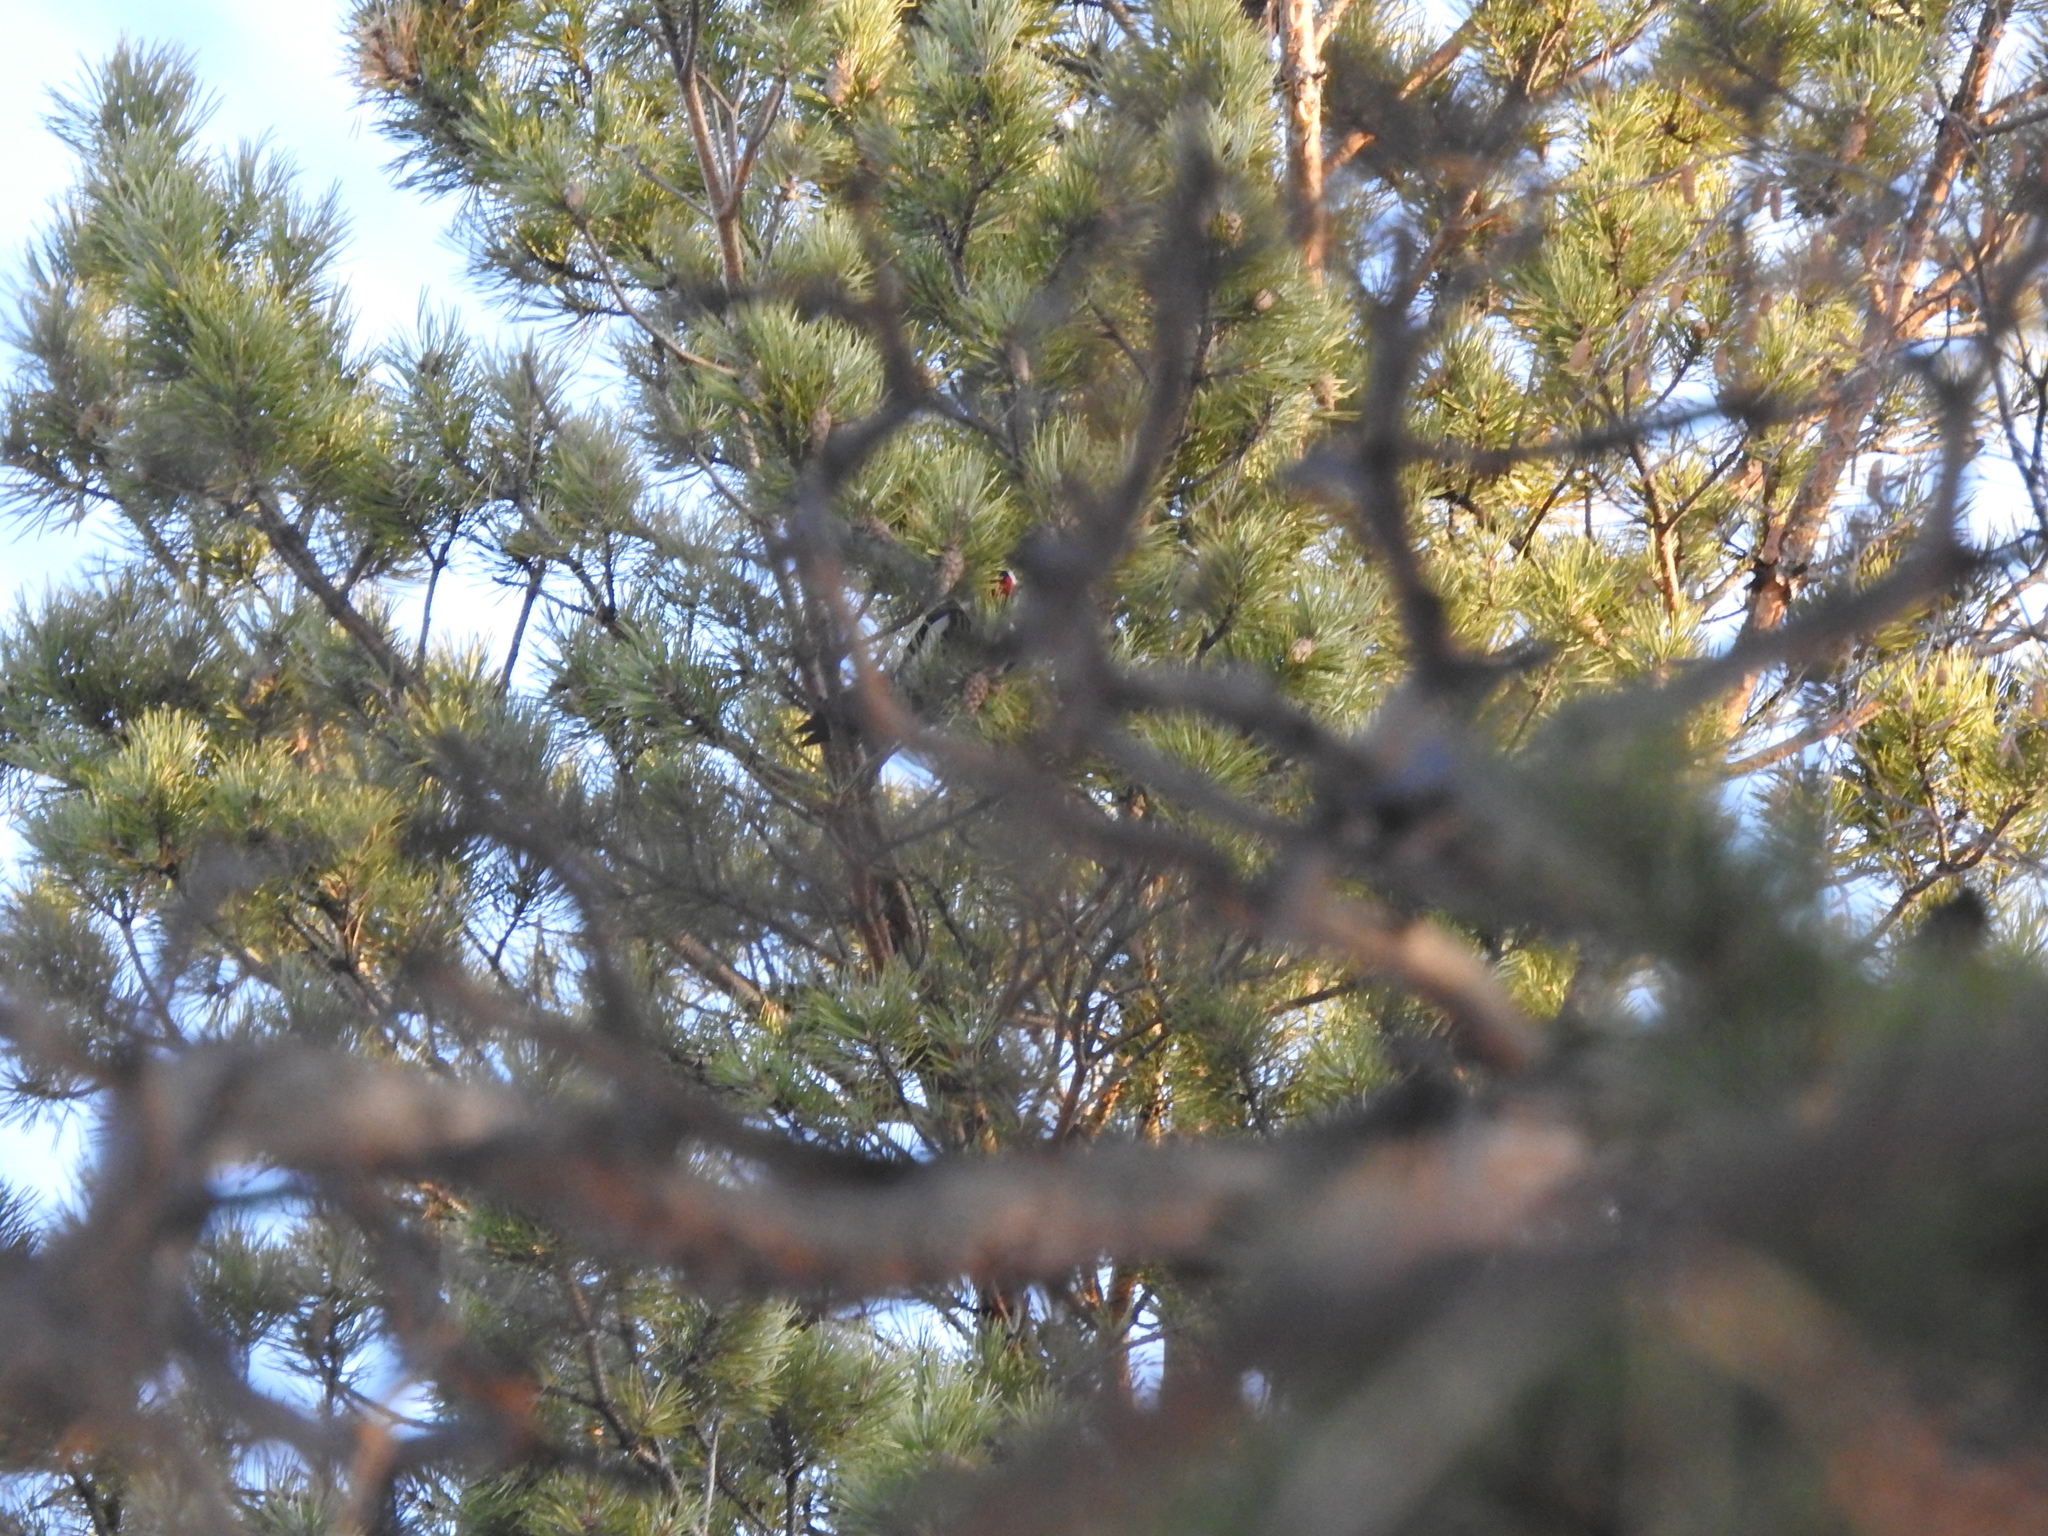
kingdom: Animalia
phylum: Chordata
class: Aves
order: Piciformes
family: Picidae
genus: Dendrocopos
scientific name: Dendrocopos major
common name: Great spotted woodpecker
